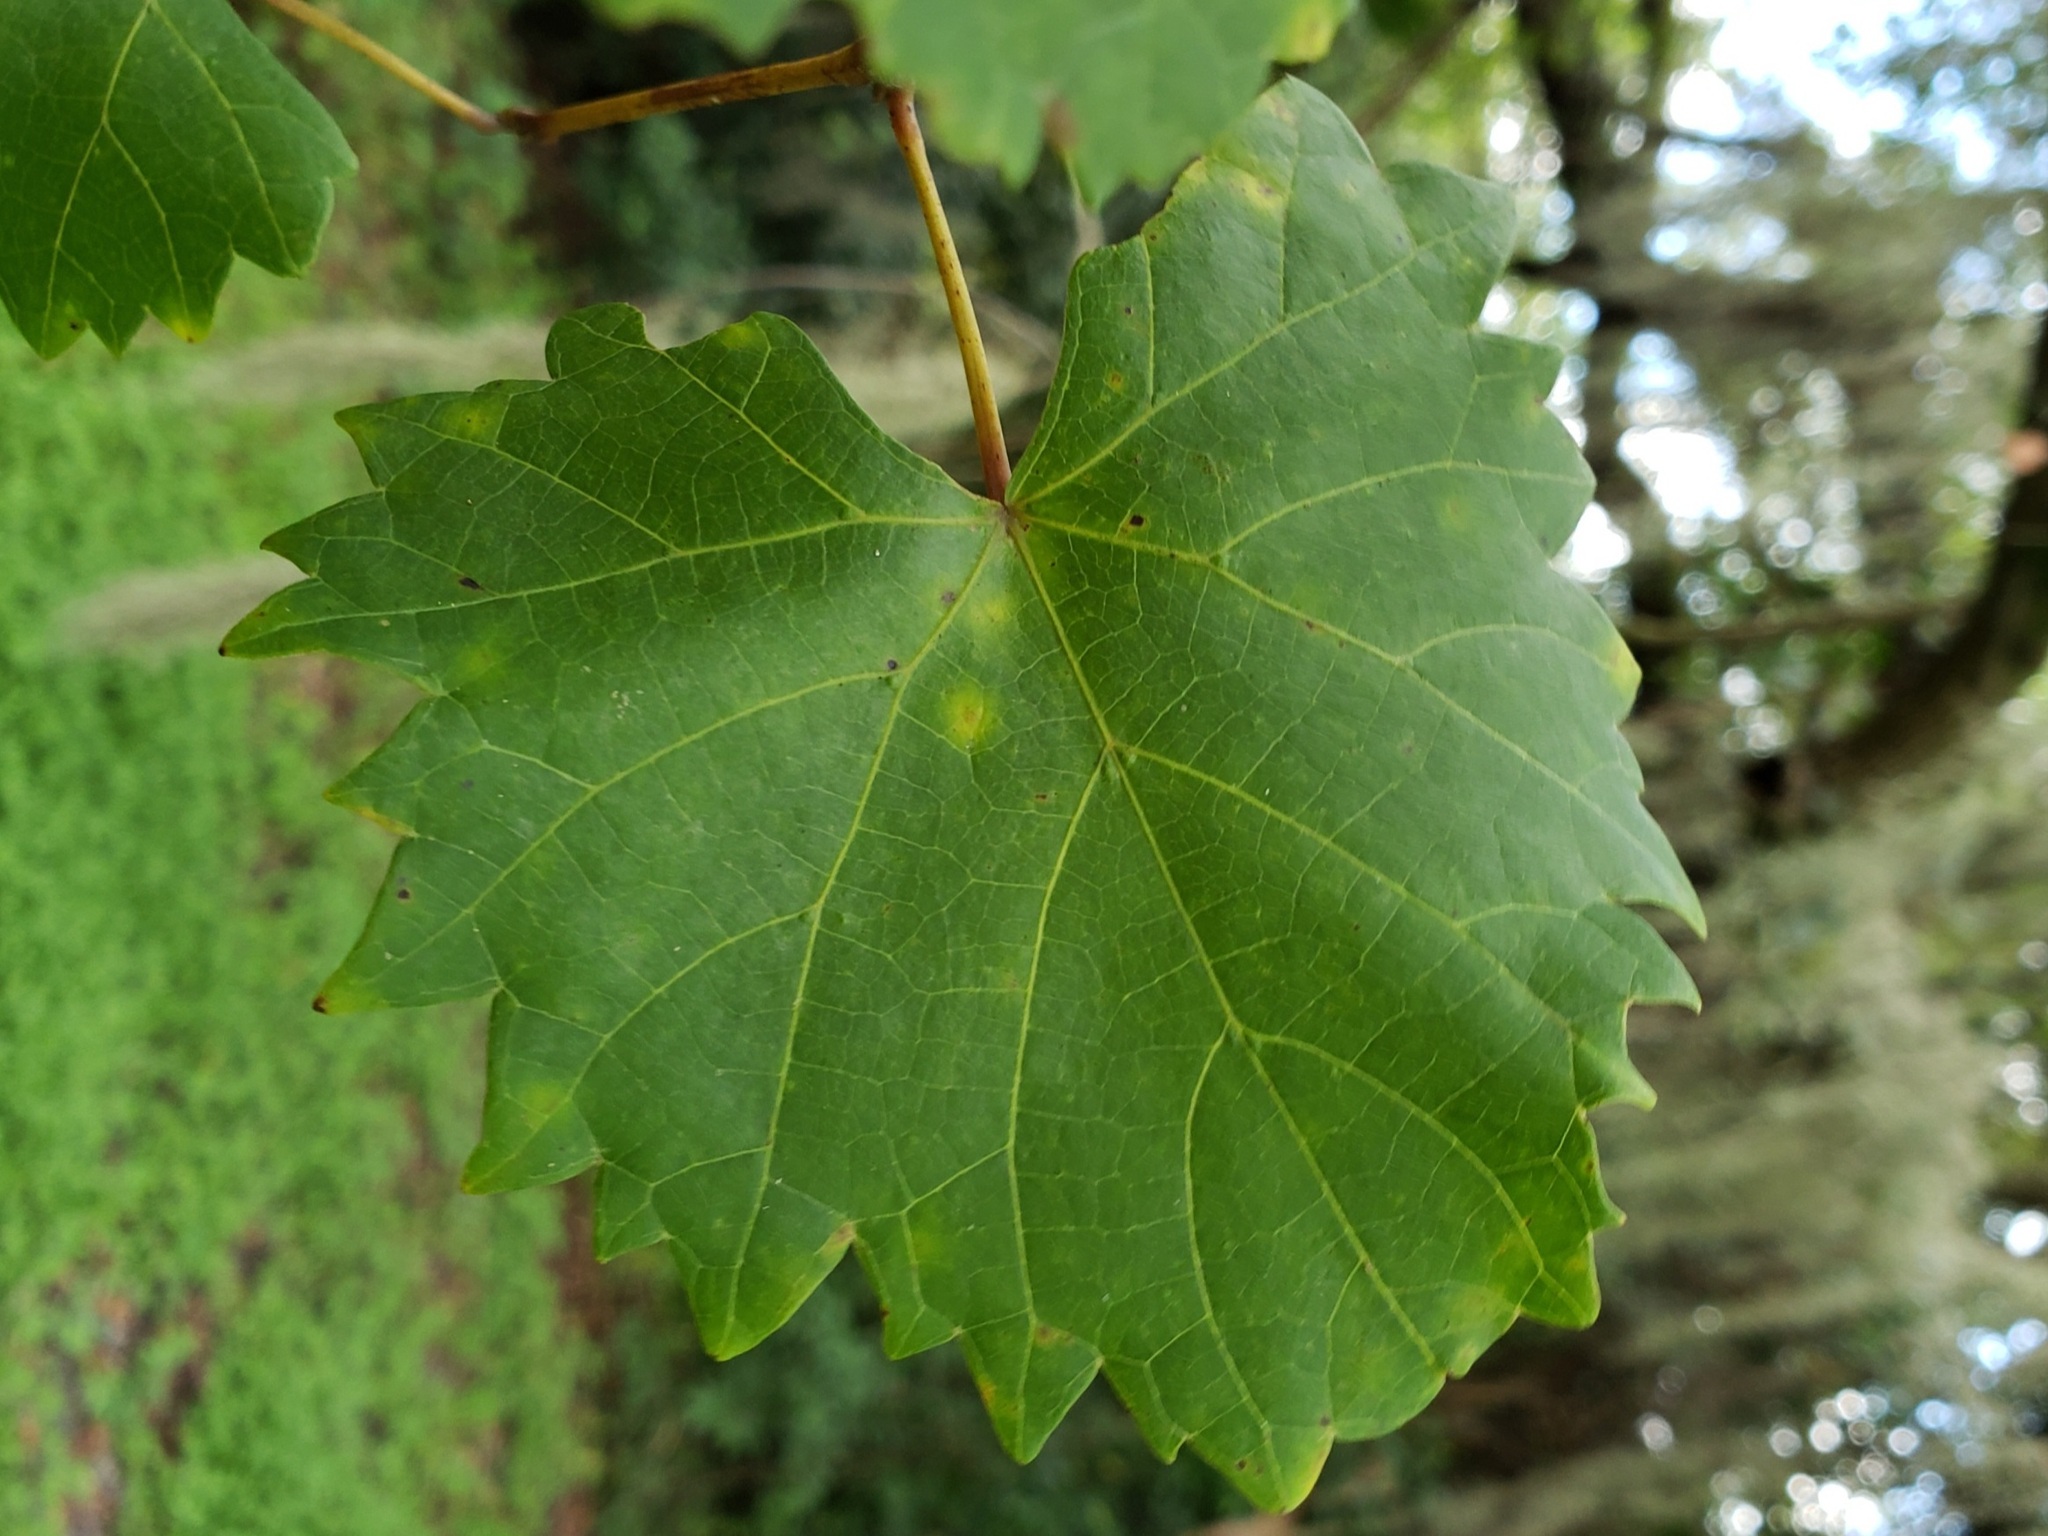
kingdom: Plantae
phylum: Tracheophyta
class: Magnoliopsida
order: Vitales
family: Vitaceae
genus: Vitis
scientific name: Vitis rotundifolia
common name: Muscadine grape
